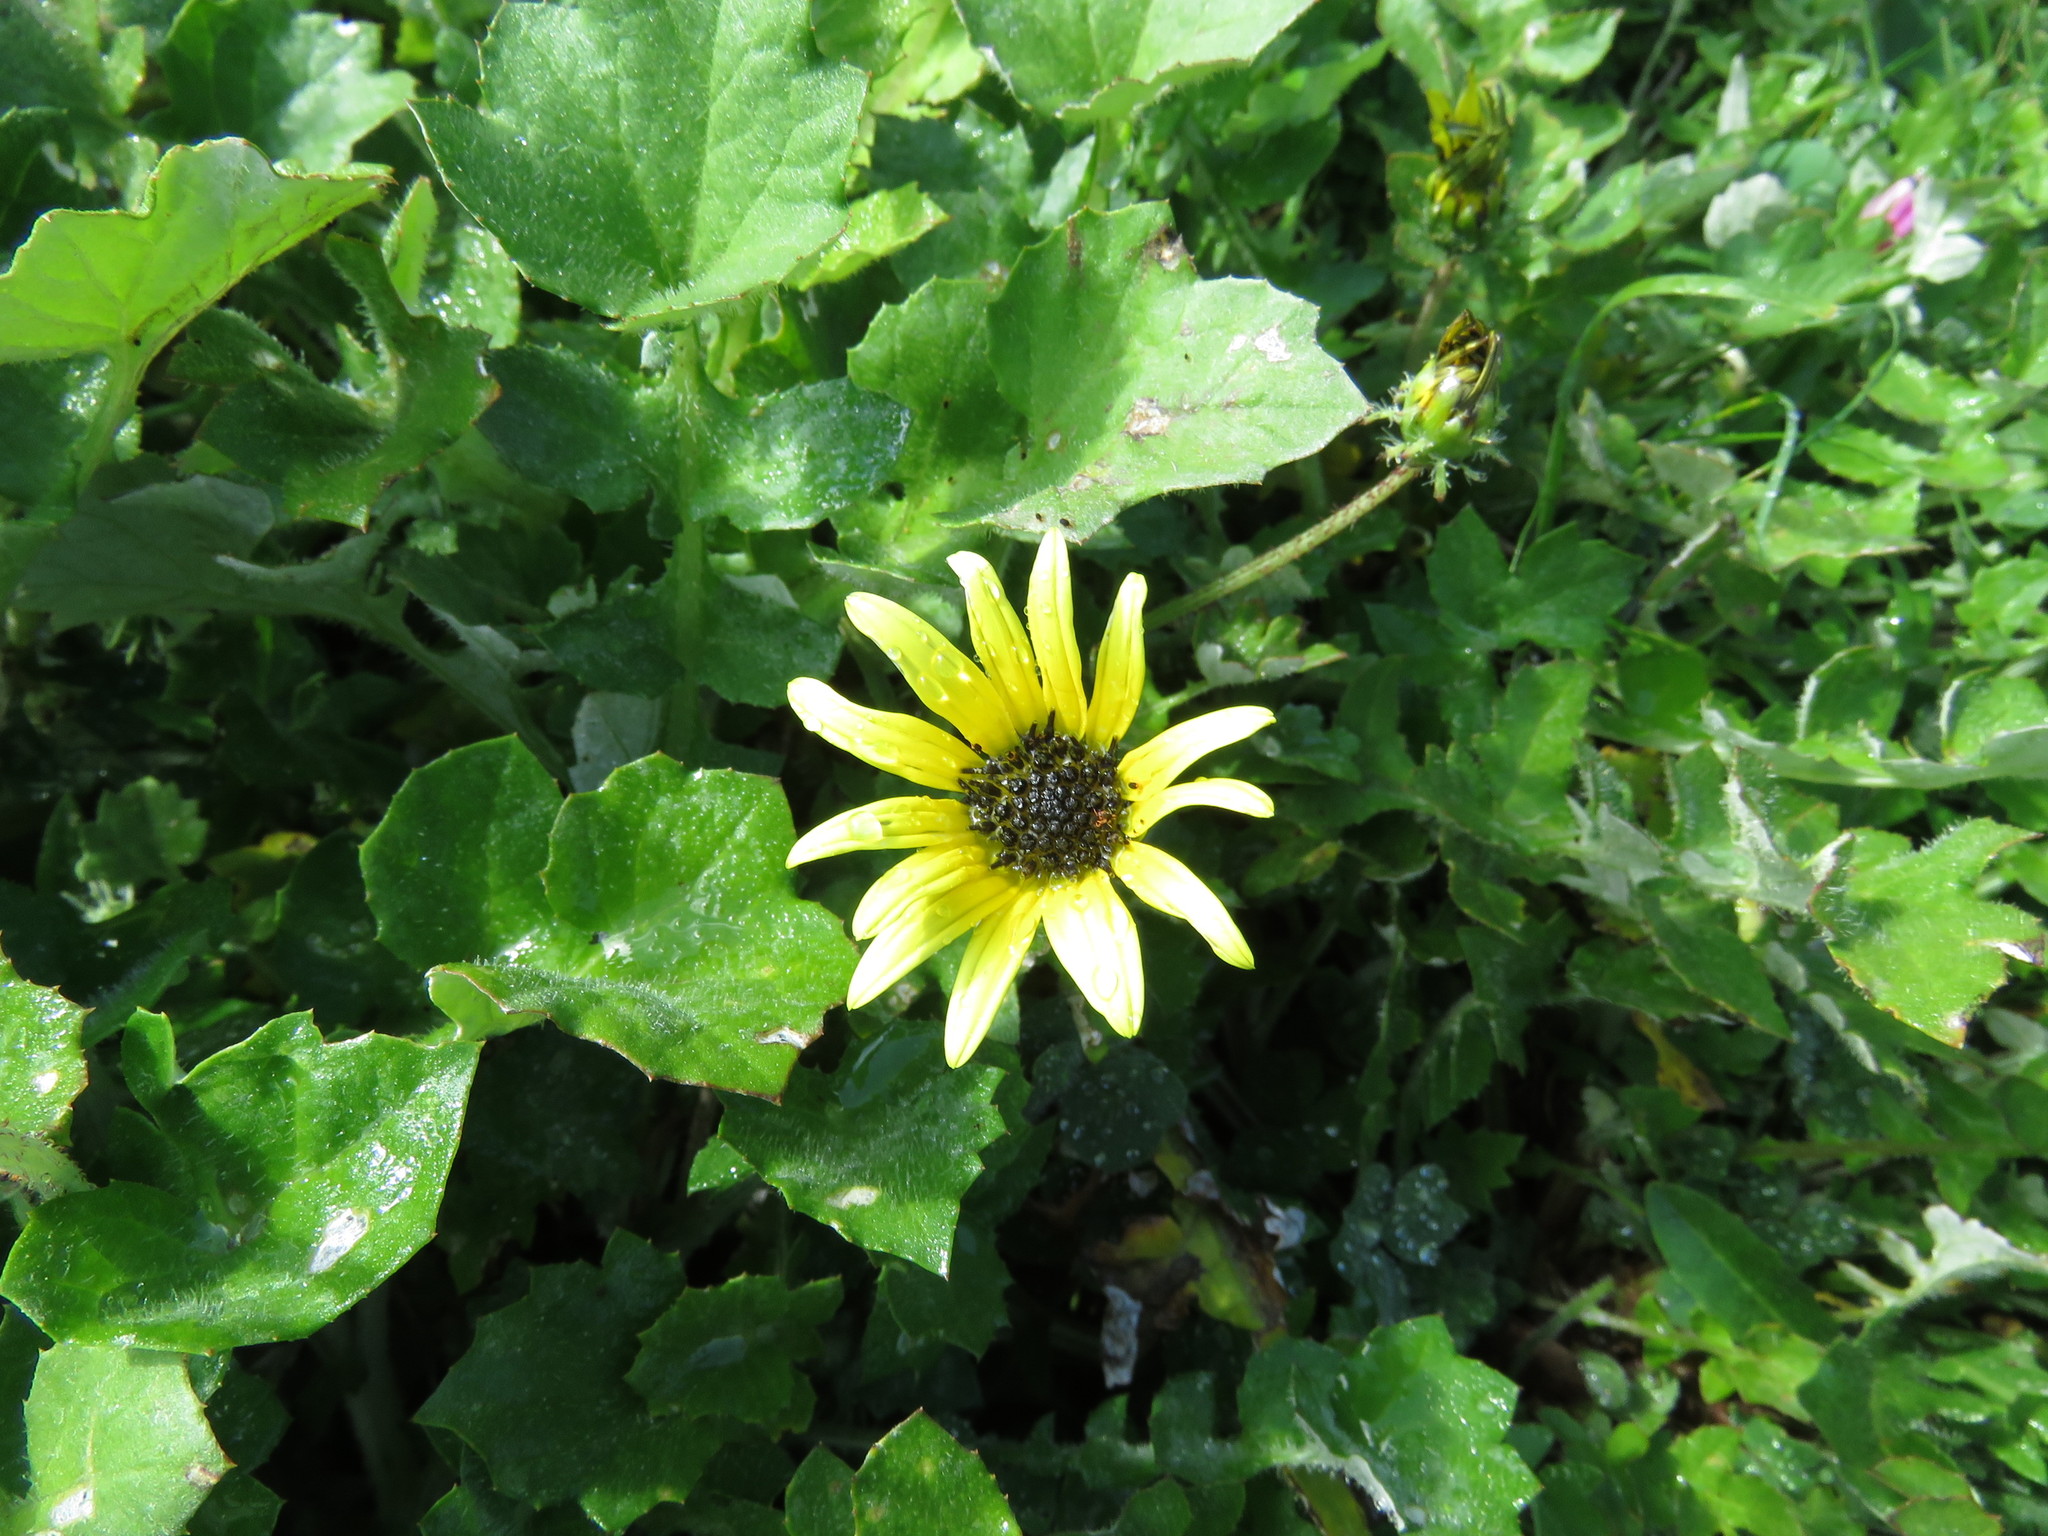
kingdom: Plantae
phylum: Tracheophyta
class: Magnoliopsida
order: Asterales
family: Asteraceae
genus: Arctotheca
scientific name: Arctotheca calendula
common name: Capeweed
